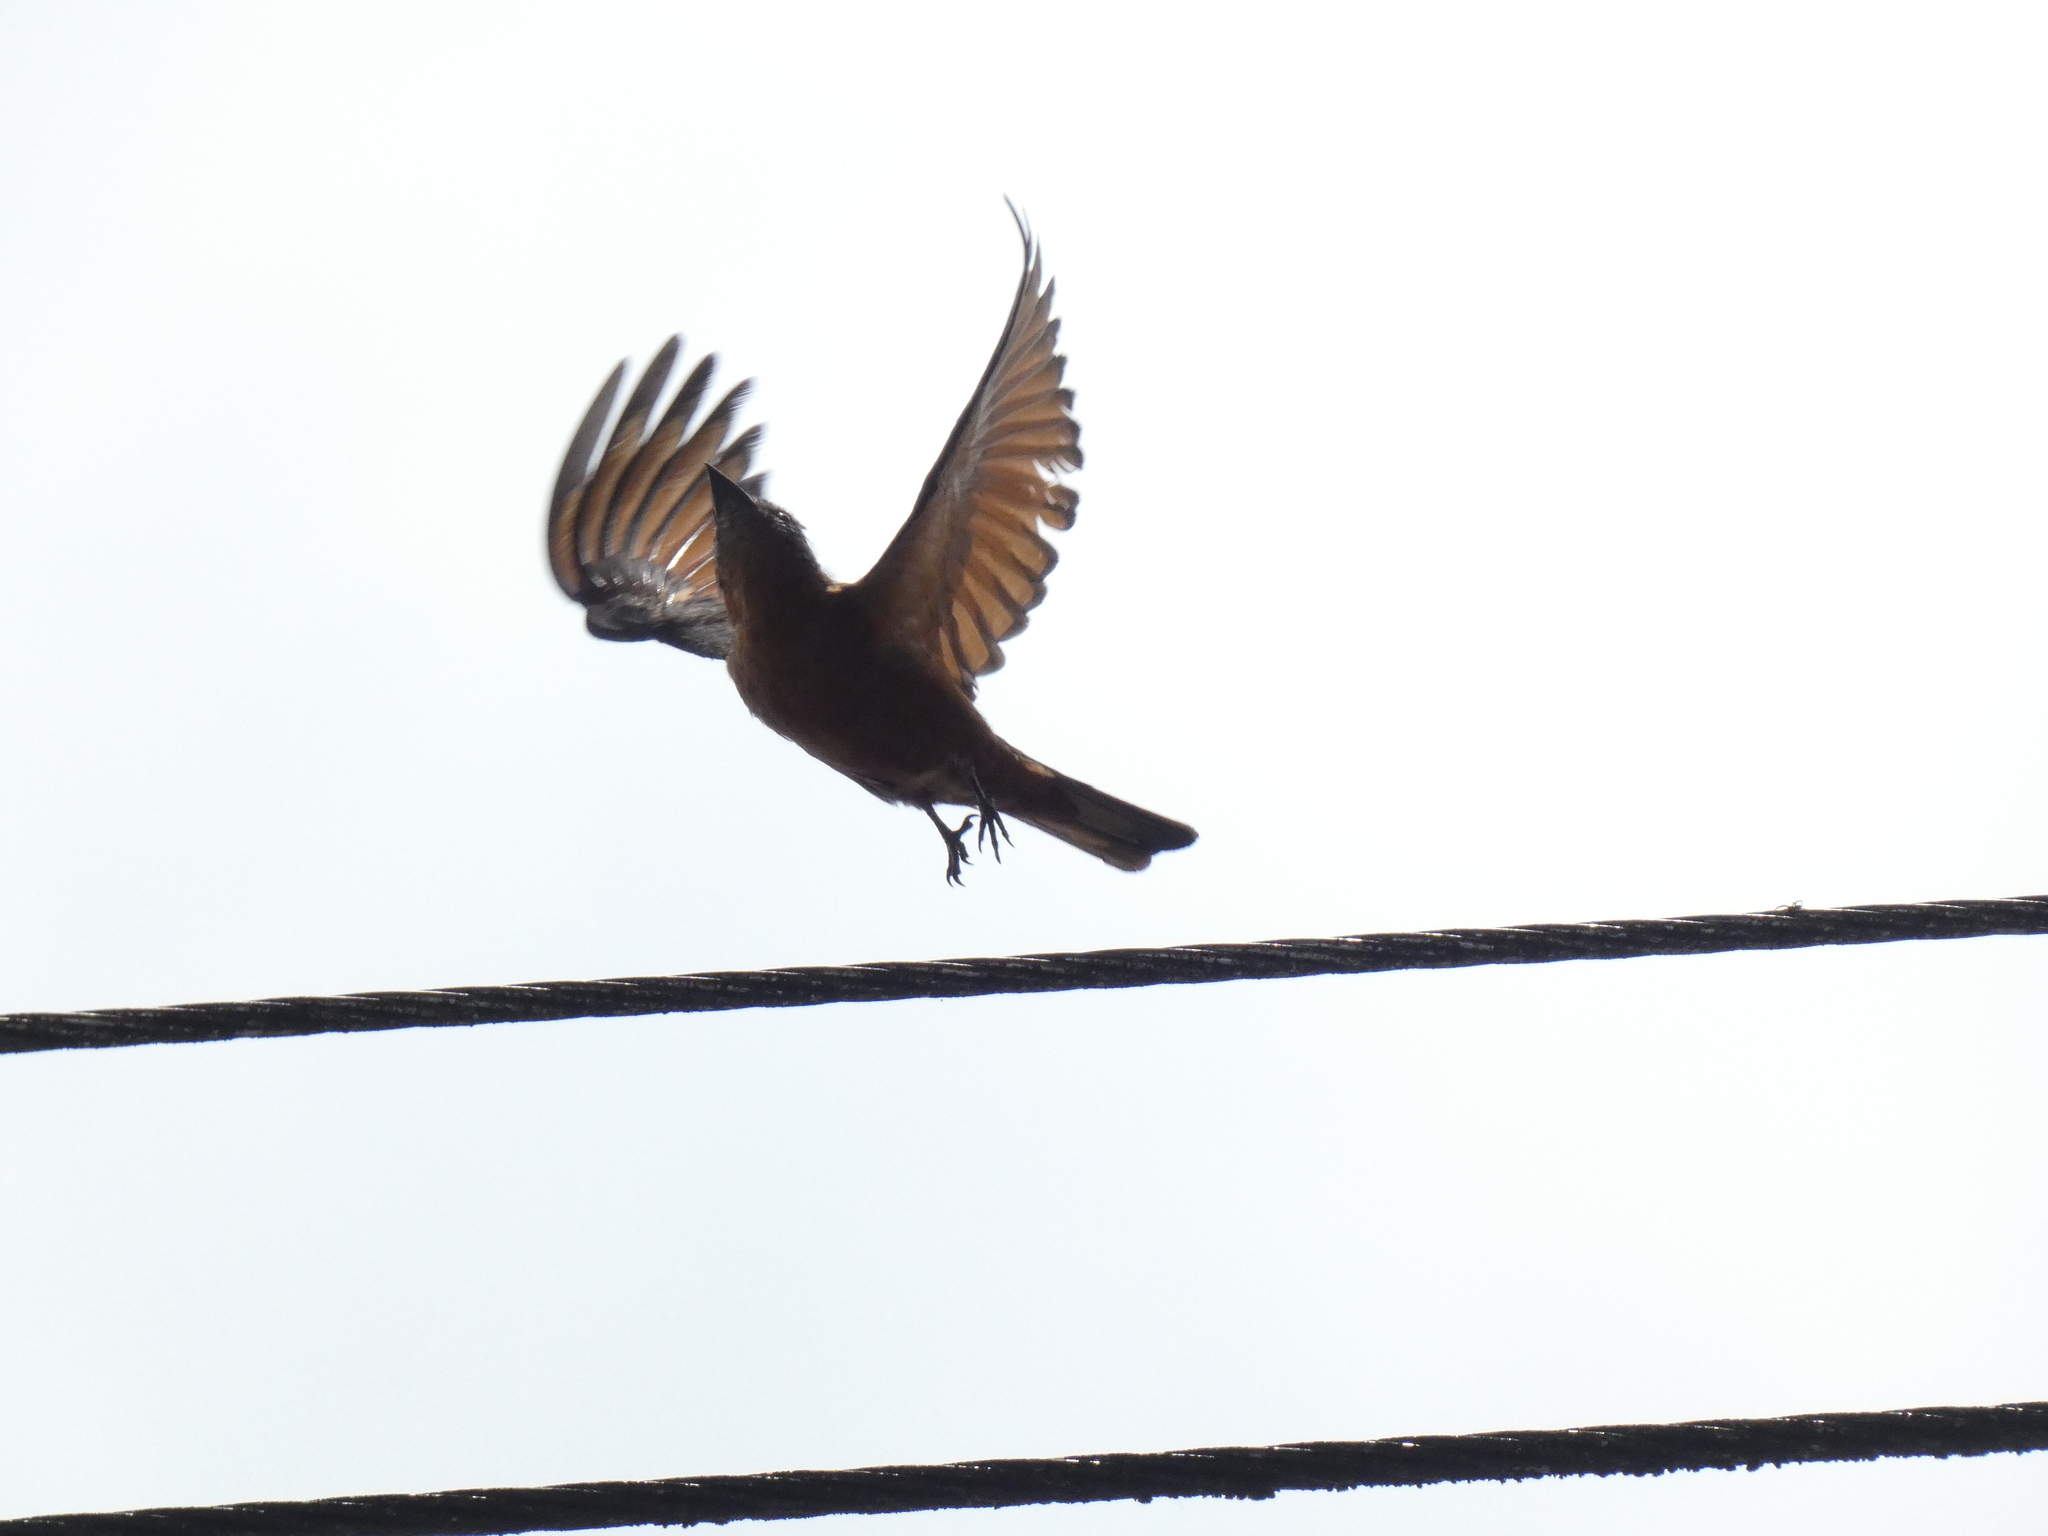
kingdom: Animalia
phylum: Chordata
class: Aves
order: Passeriformes
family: Tyrannidae
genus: Hirundinea
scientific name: Hirundinea ferruginea
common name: Cliff flycatcher
